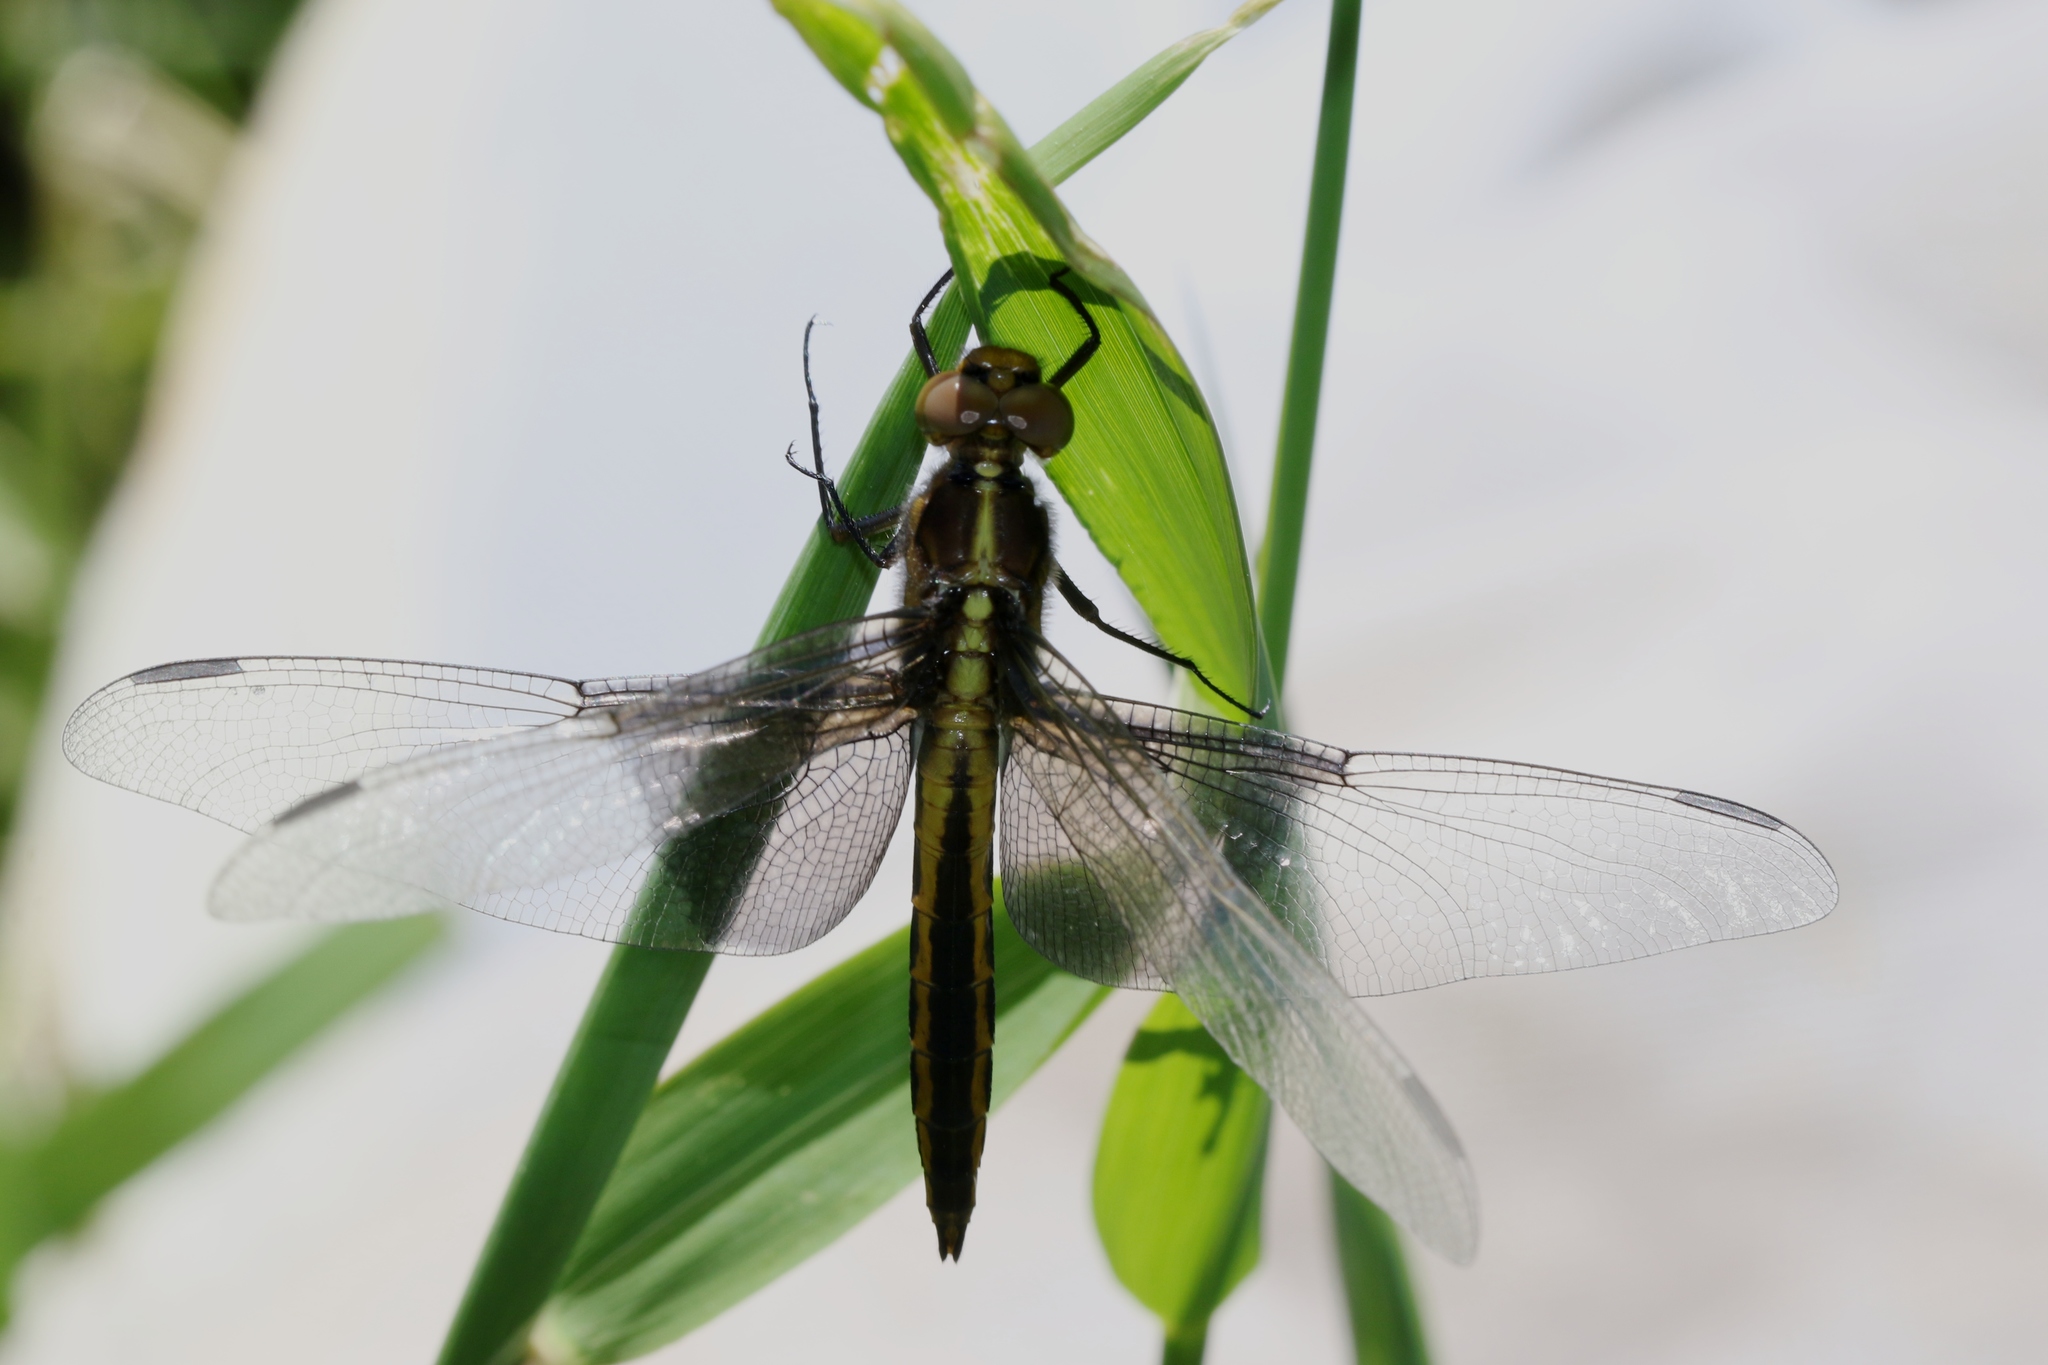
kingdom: Animalia
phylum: Arthropoda
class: Insecta
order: Odonata
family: Libellulidae
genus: Libellula
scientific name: Libellula luctuosa
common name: Widow skimmer
